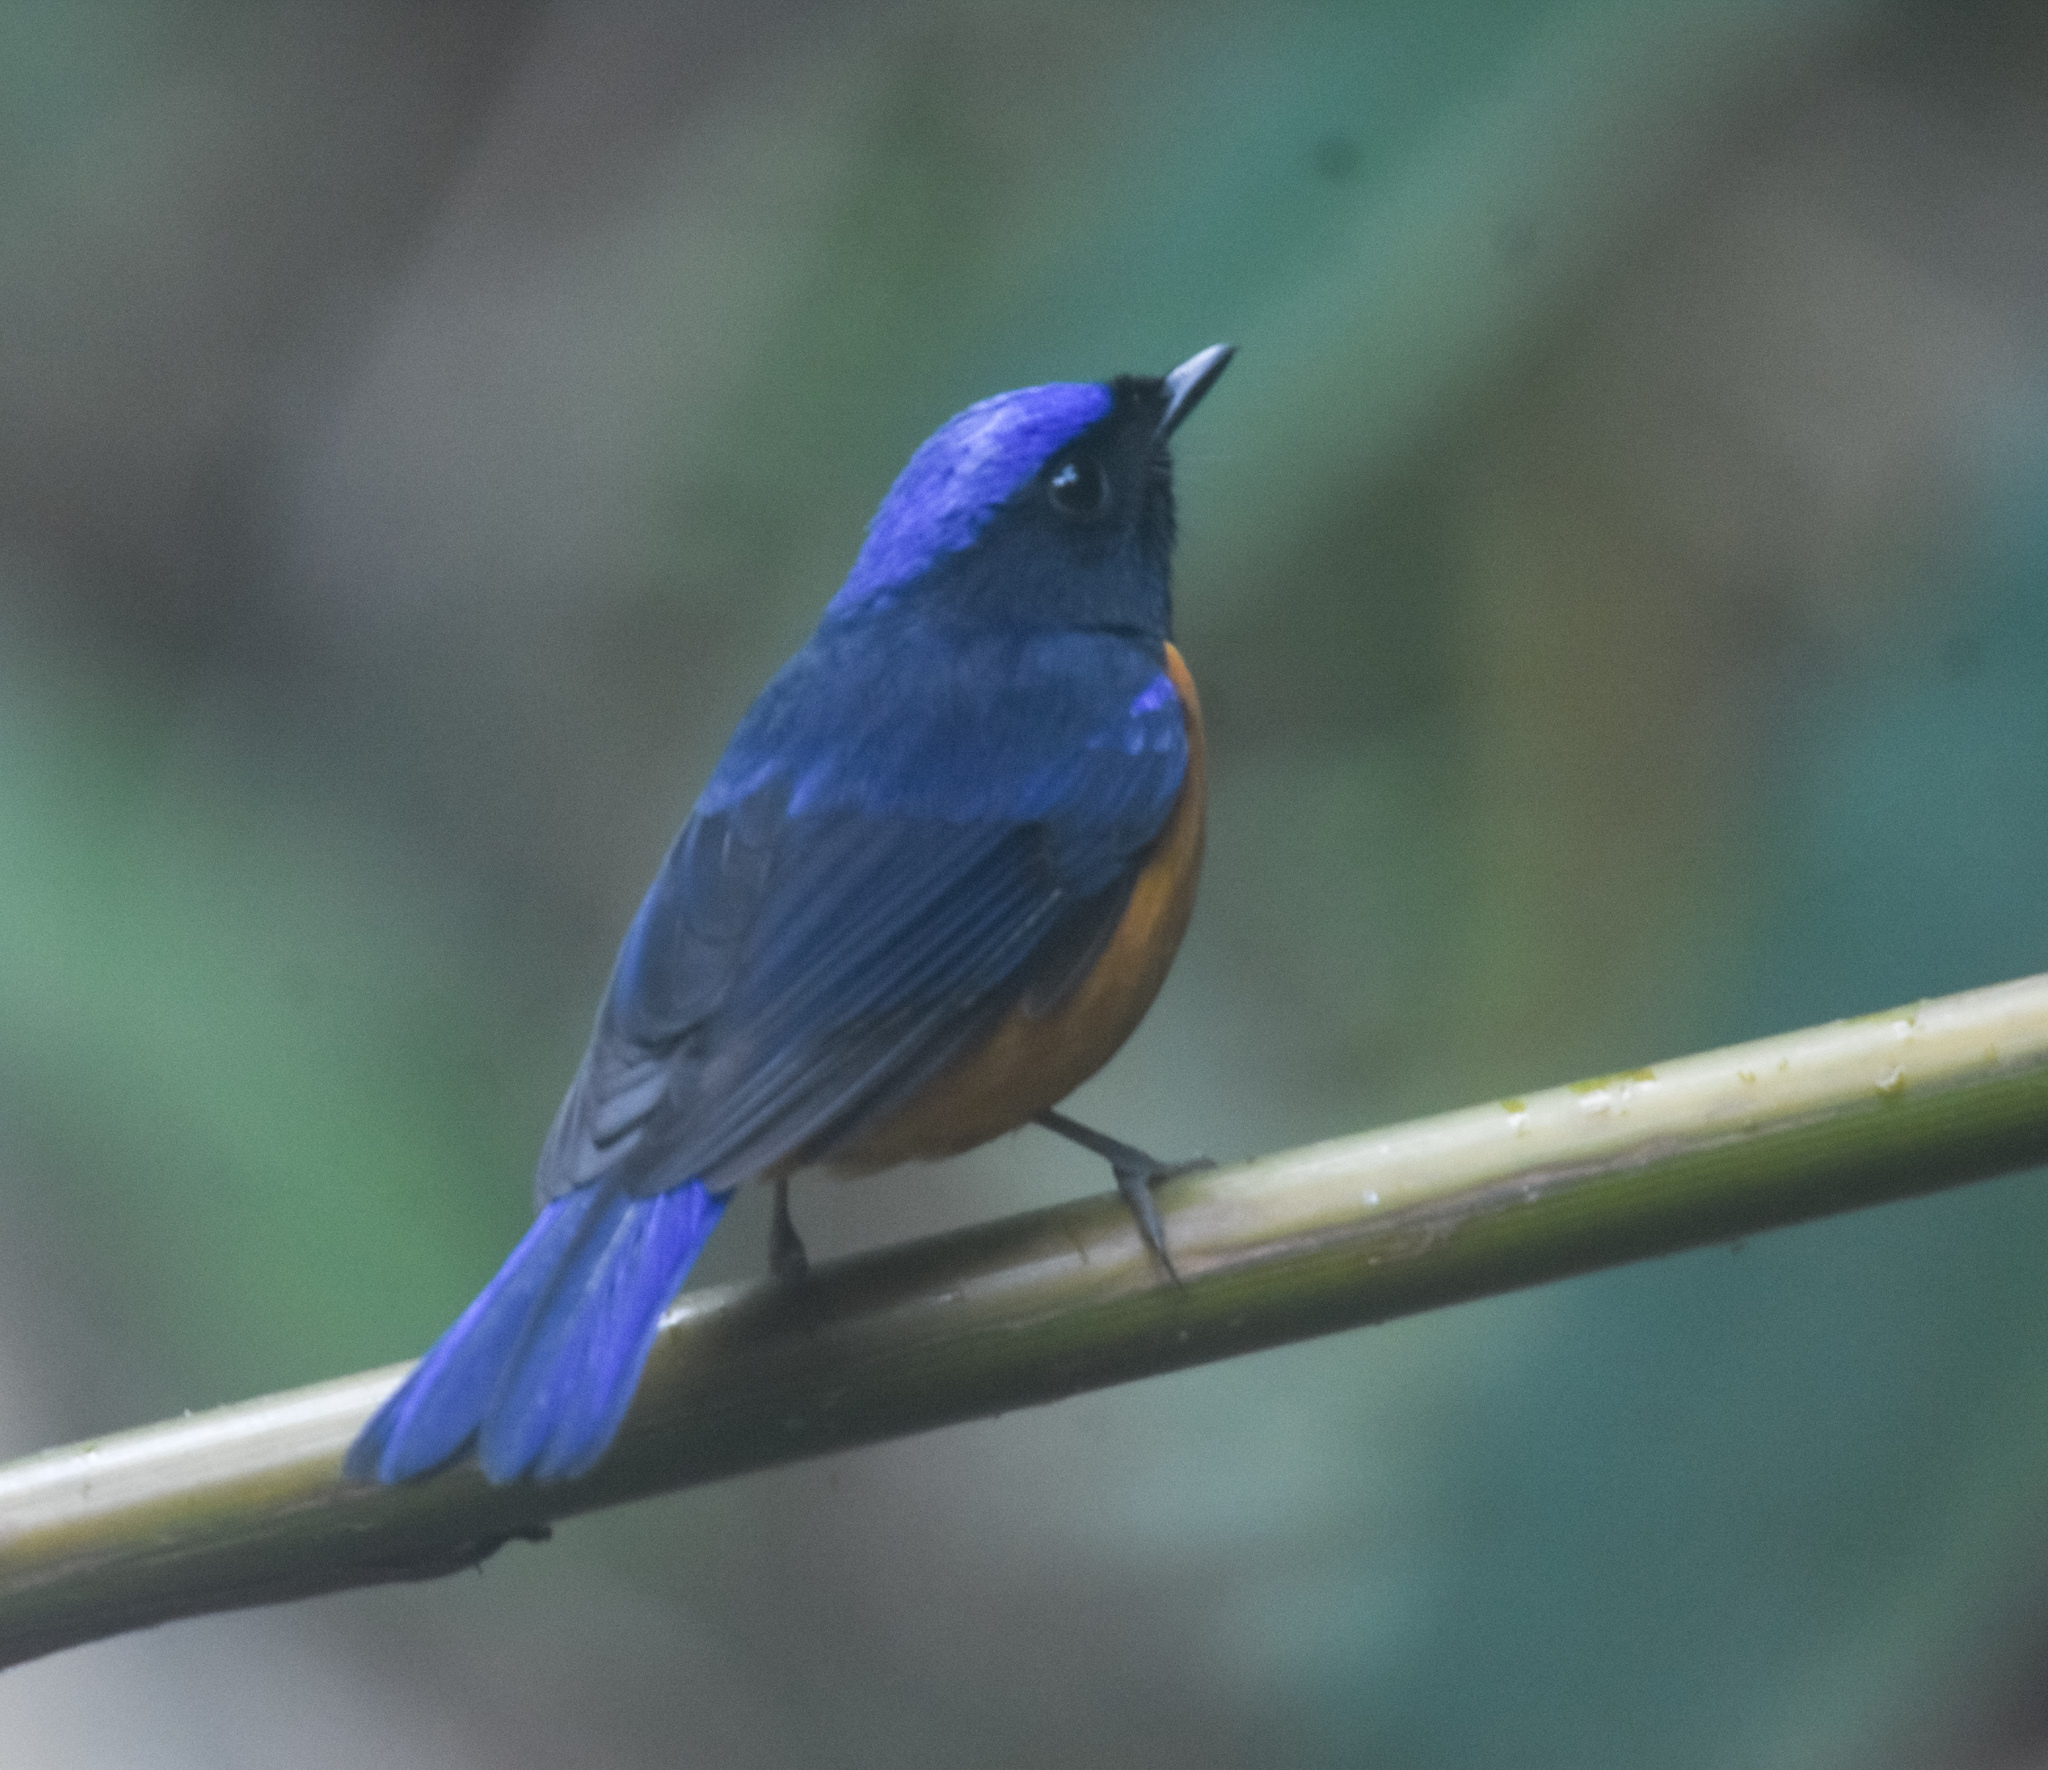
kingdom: Animalia
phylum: Chordata
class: Aves
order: Passeriformes
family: Muscicapidae
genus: Niltava
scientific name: Niltava sundara
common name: Rufous-bellied niltava
